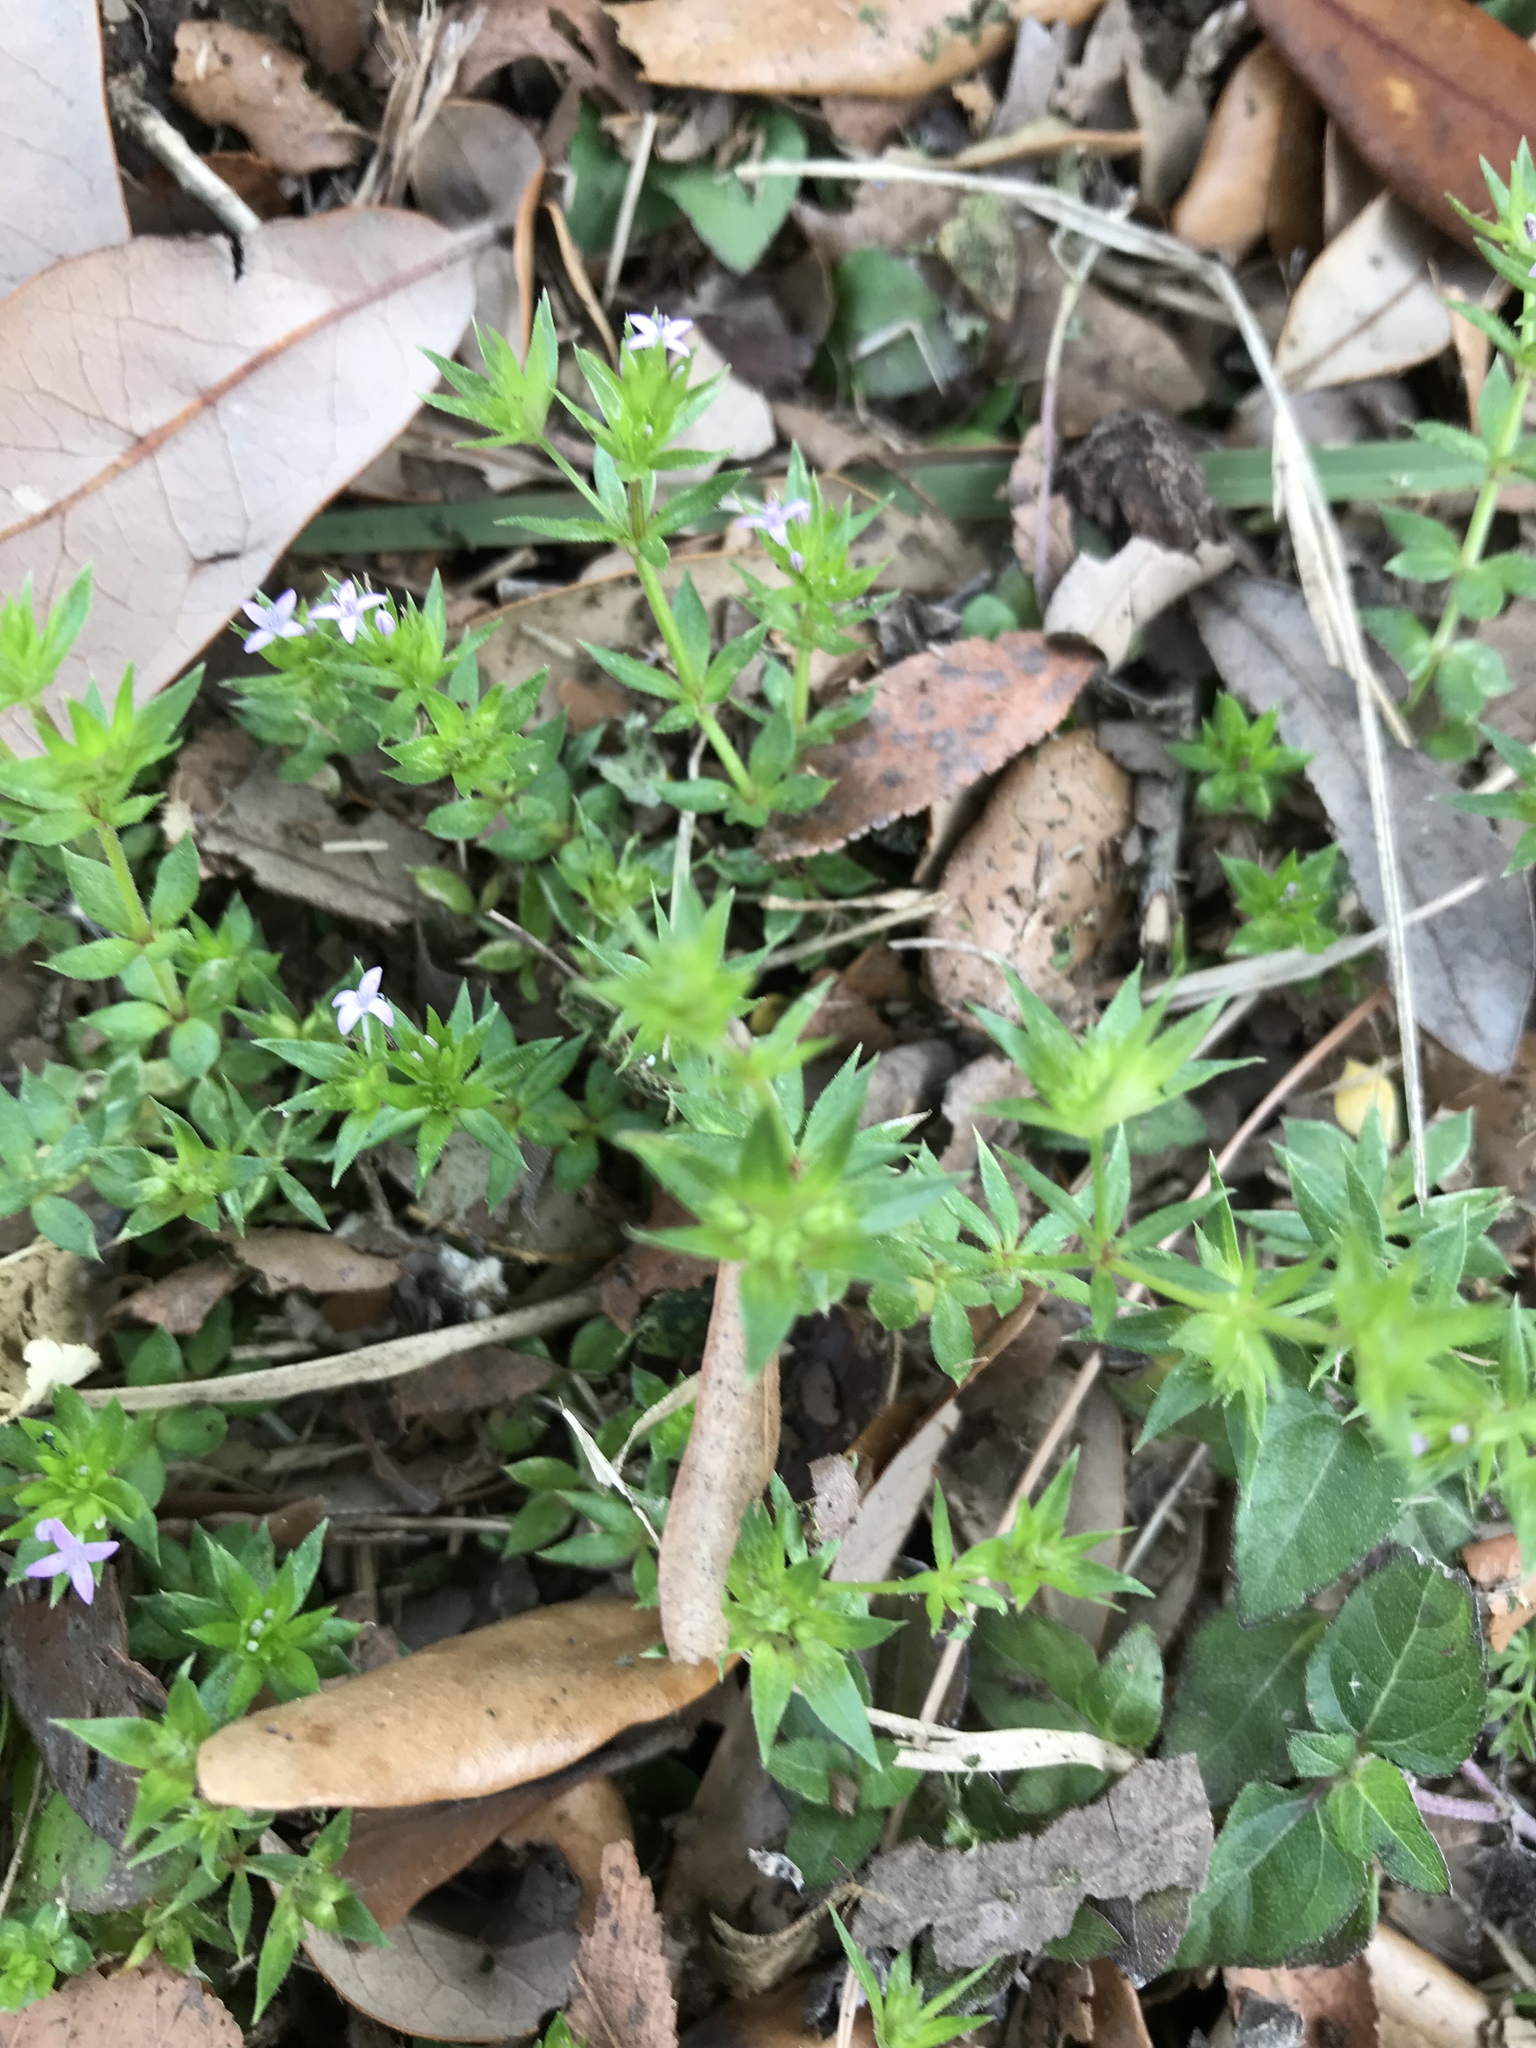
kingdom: Plantae
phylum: Tracheophyta
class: Magnoliopsida
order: Gentianales
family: Rubiaceae
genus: Sherardia
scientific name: Sherardia arvensis
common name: Field madder
